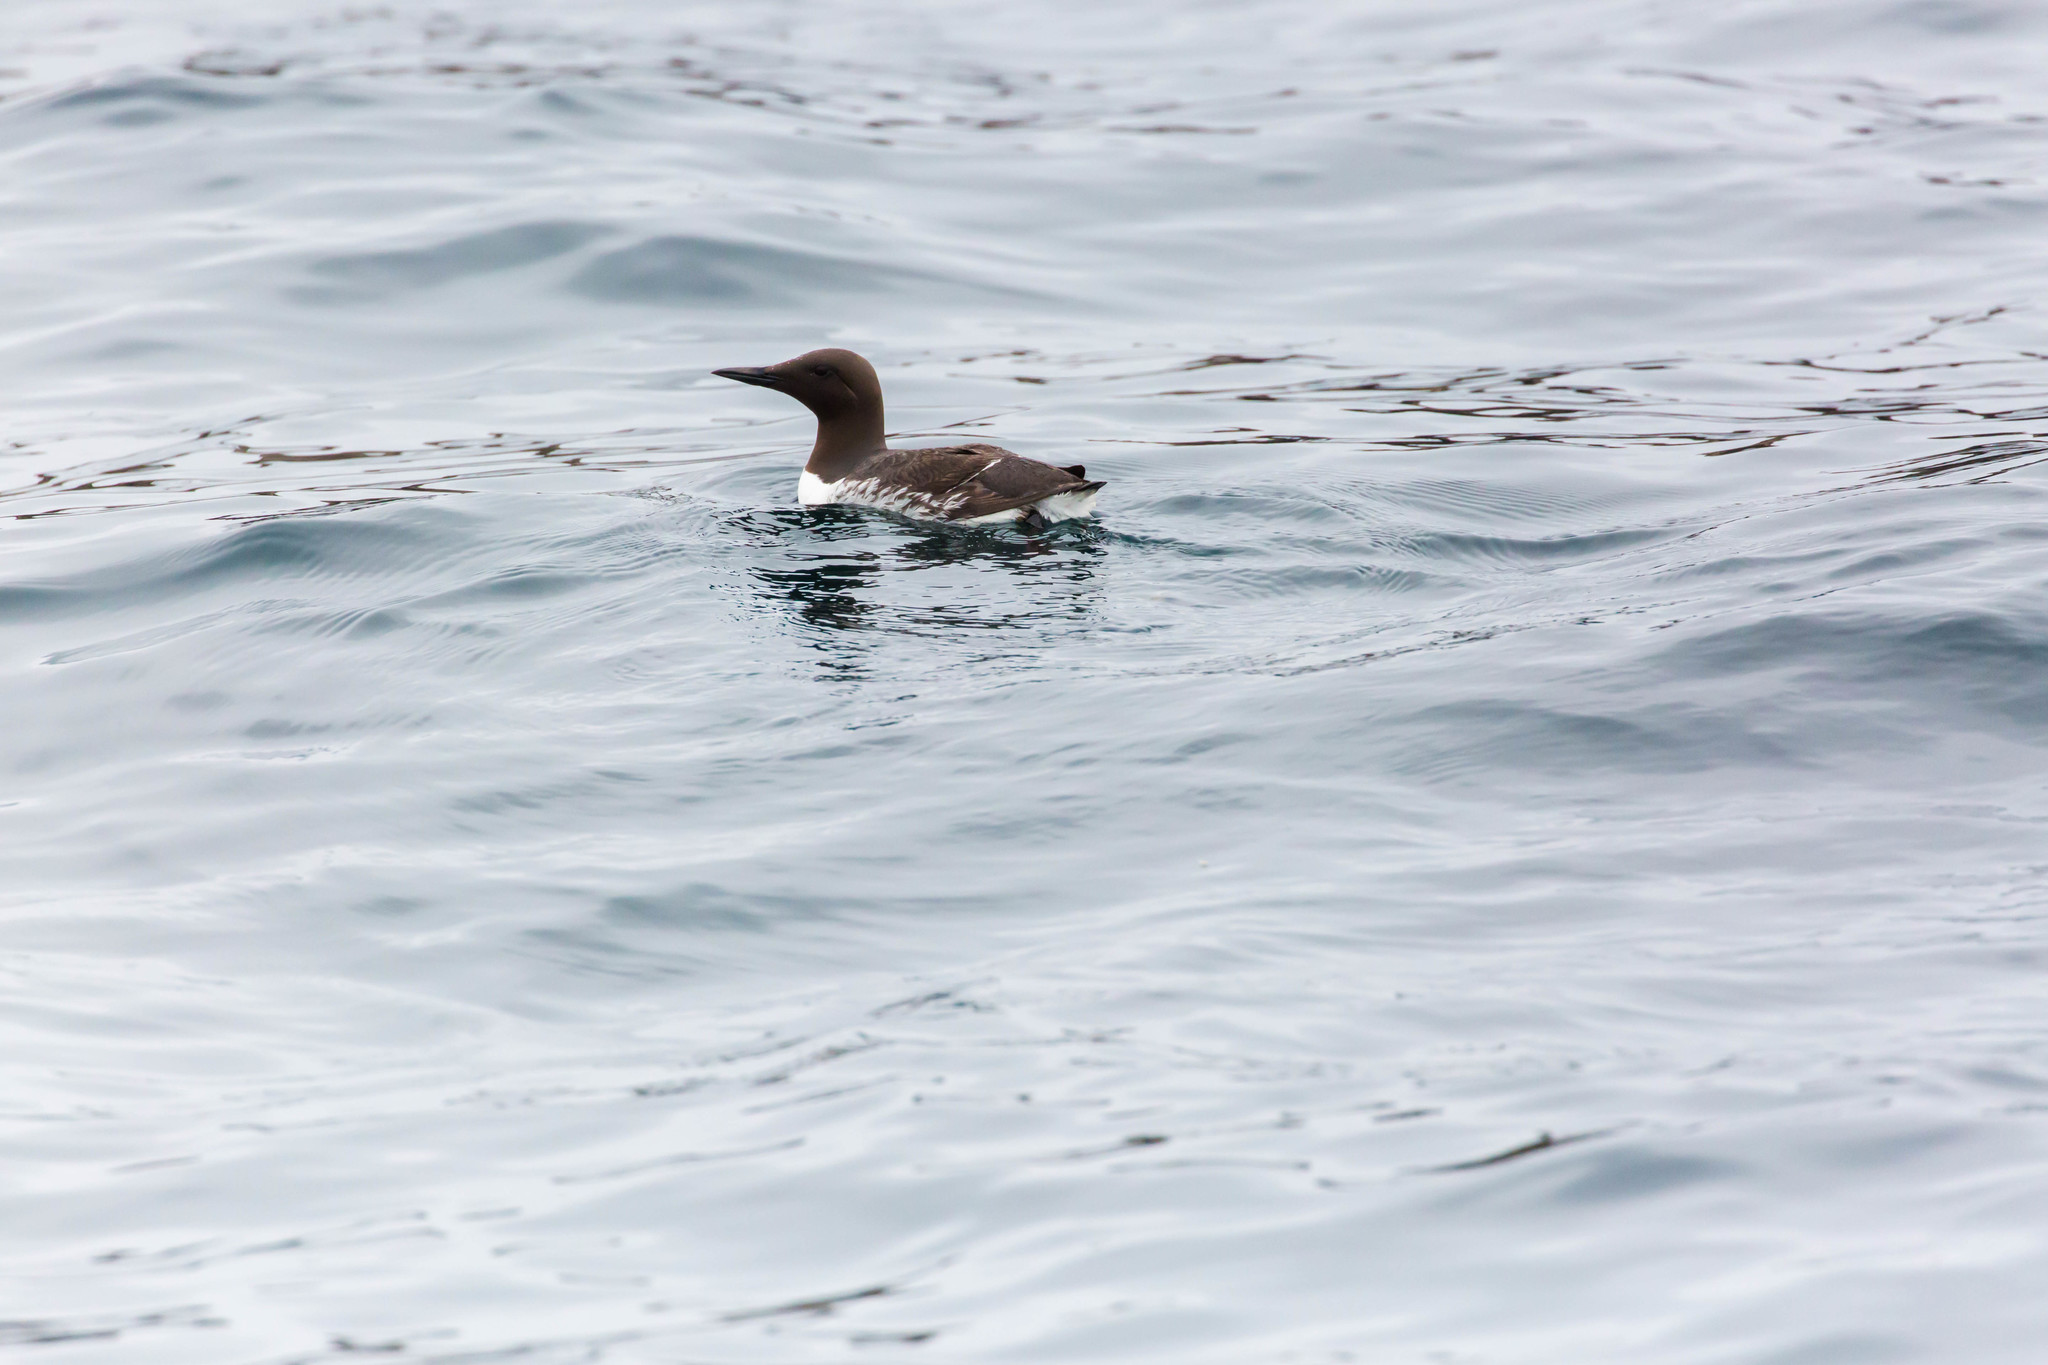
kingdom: Animalia
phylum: Chordata
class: Aves
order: Charadriiformes
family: Alcidae
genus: Uria
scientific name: Uria aalge
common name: Common murre
